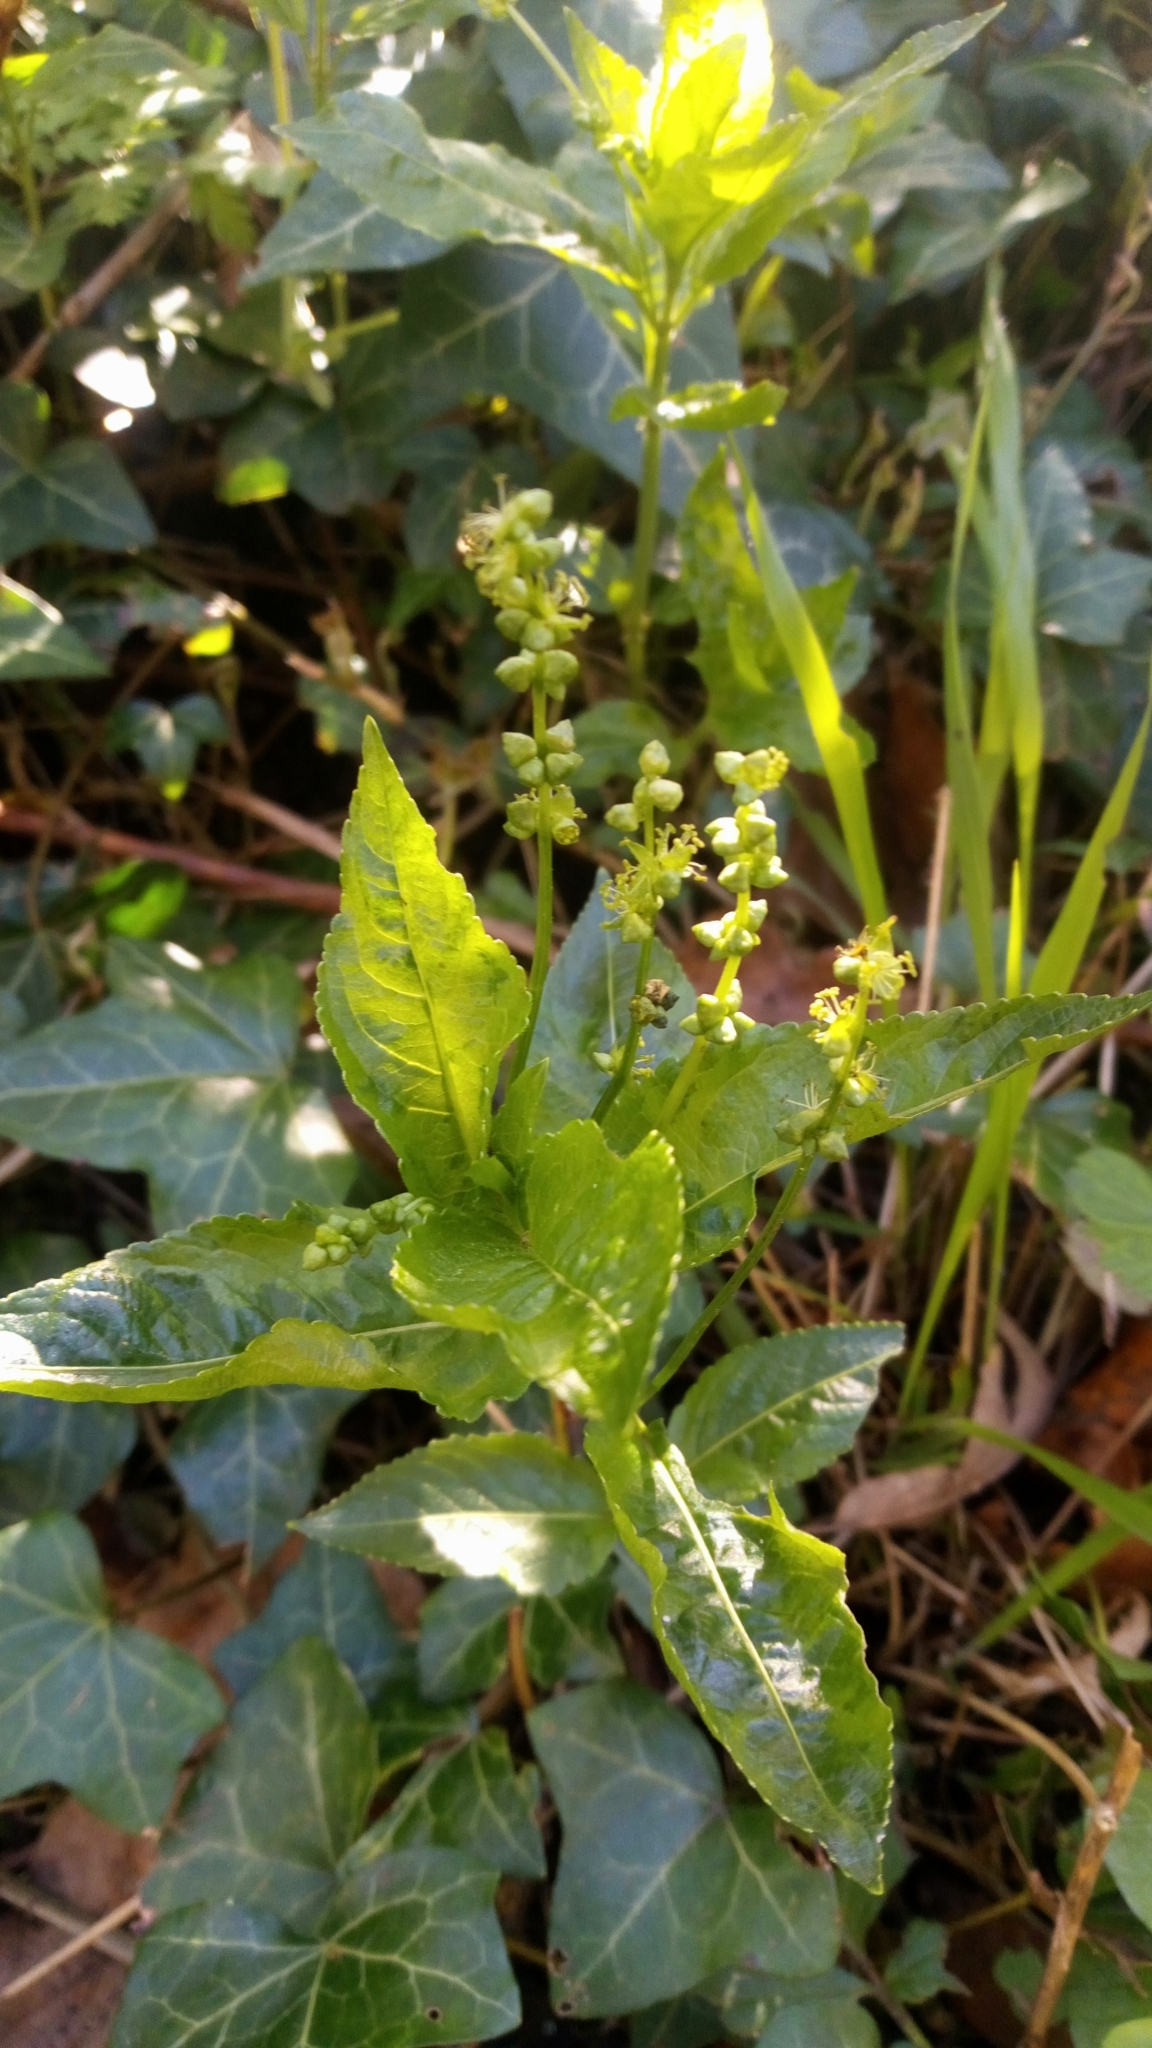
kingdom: Plantae
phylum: Tracheophyta
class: Magnoliopsida
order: Malpighiales
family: Euphorbiaceae
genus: Mercurialis
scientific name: Mercurialis annua
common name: Annual mercury
